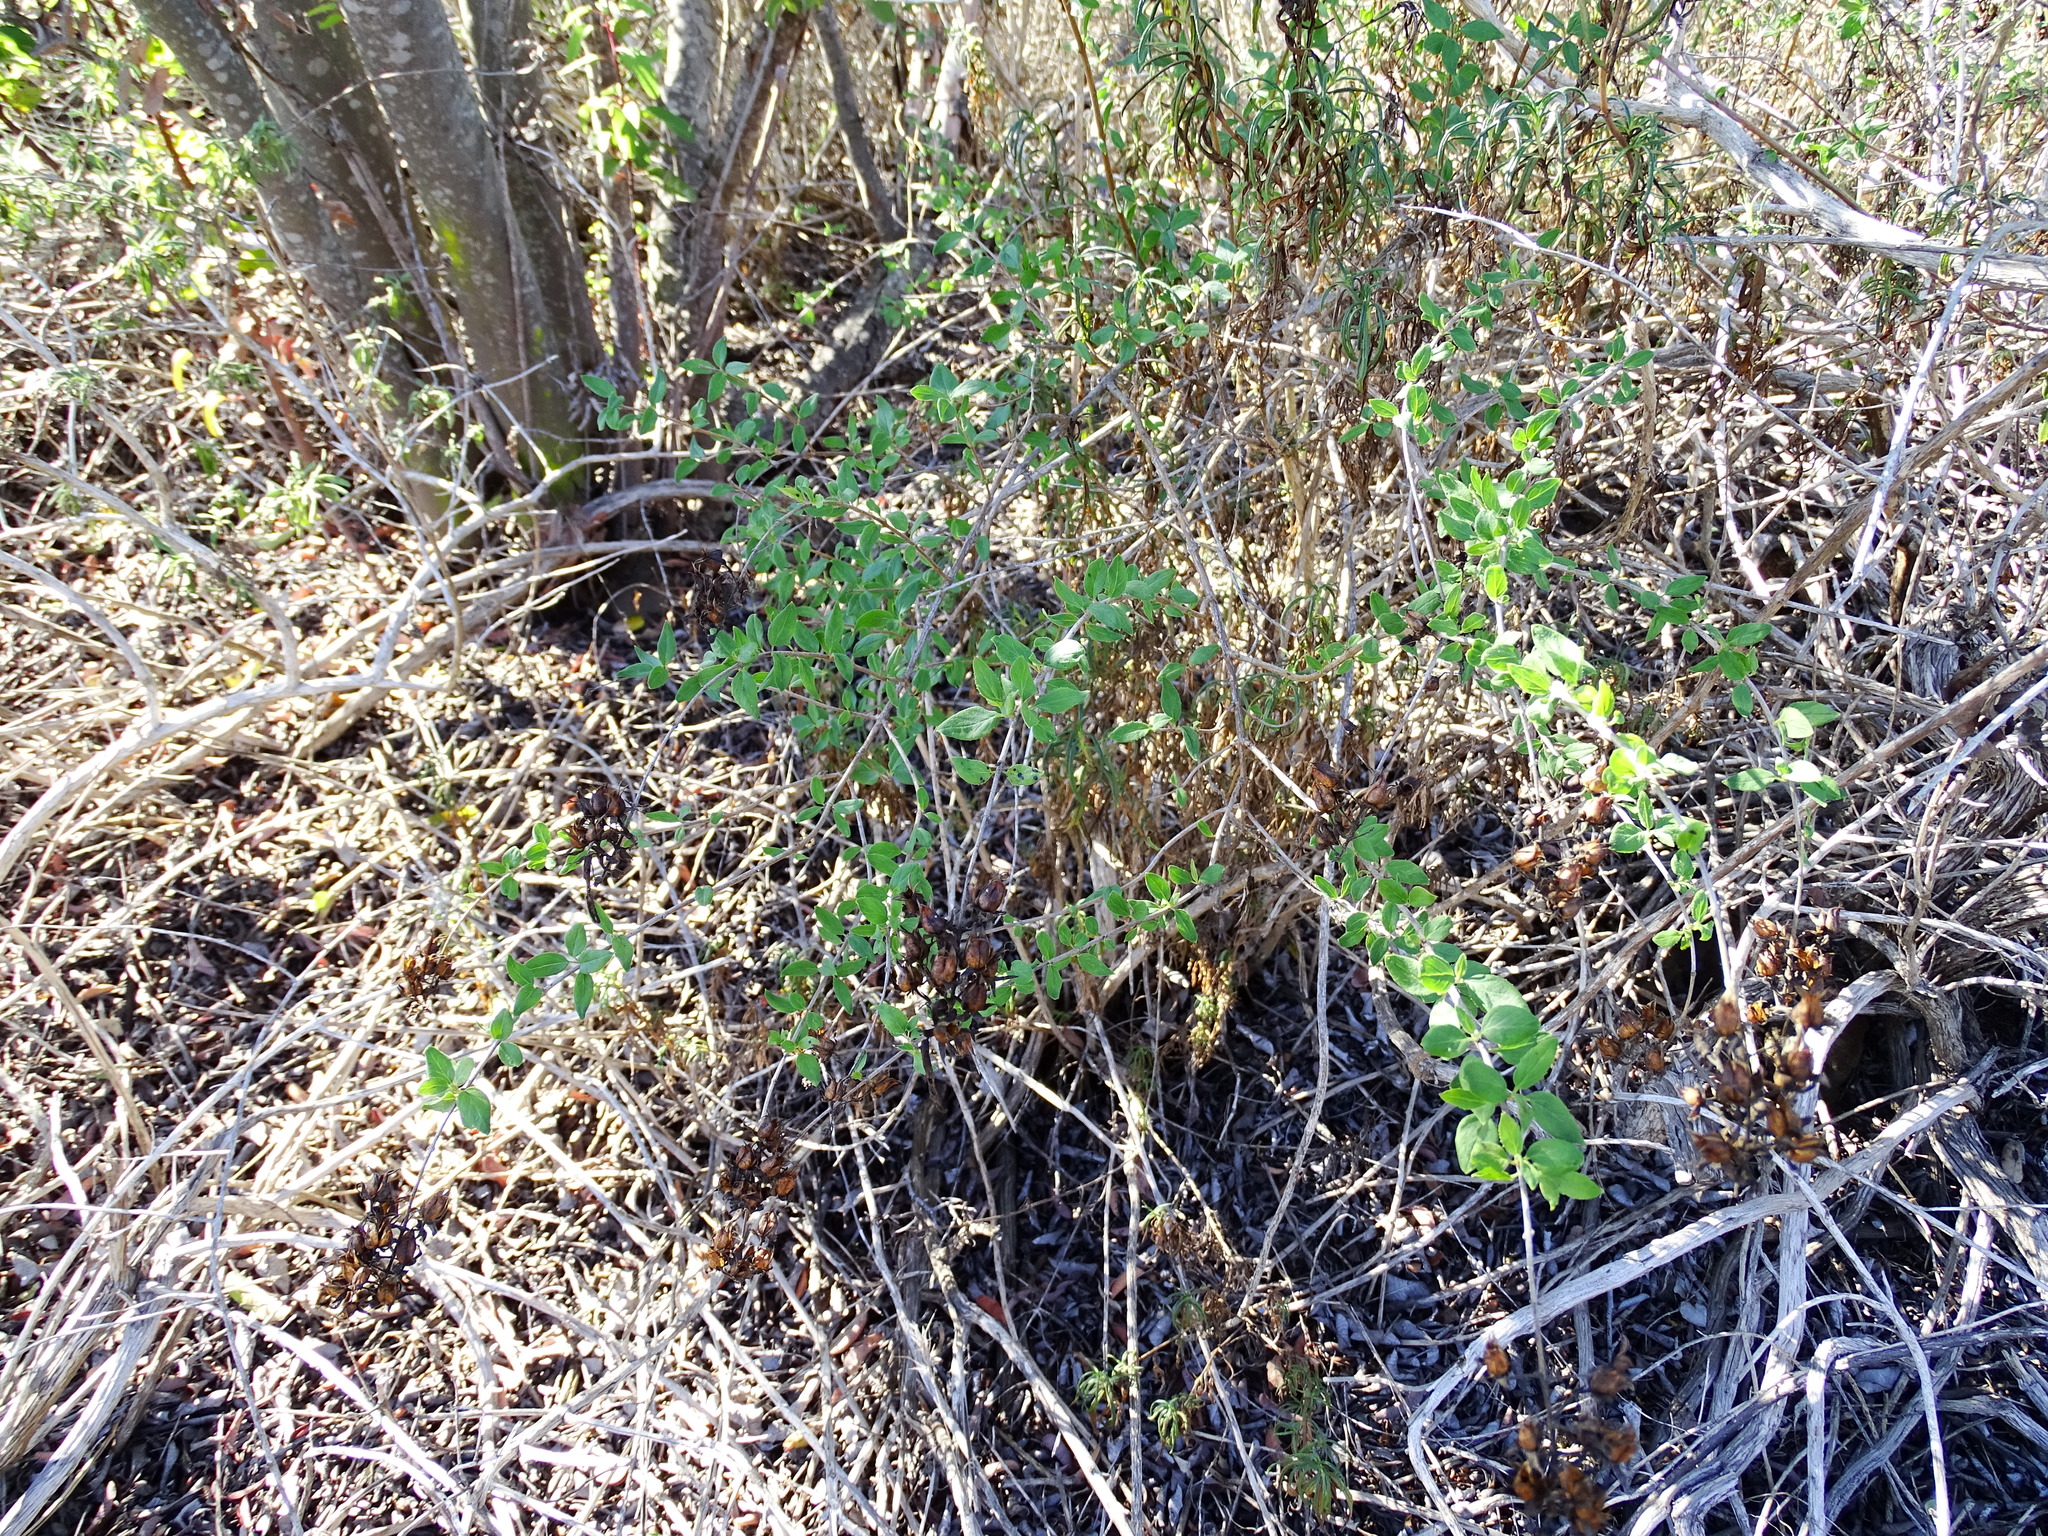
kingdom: Plantae
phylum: Tracheophyta
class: Magnoliopsida
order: Lamiales
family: Plantaginaceae
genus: Keckiella
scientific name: Keckiella cordifolia
